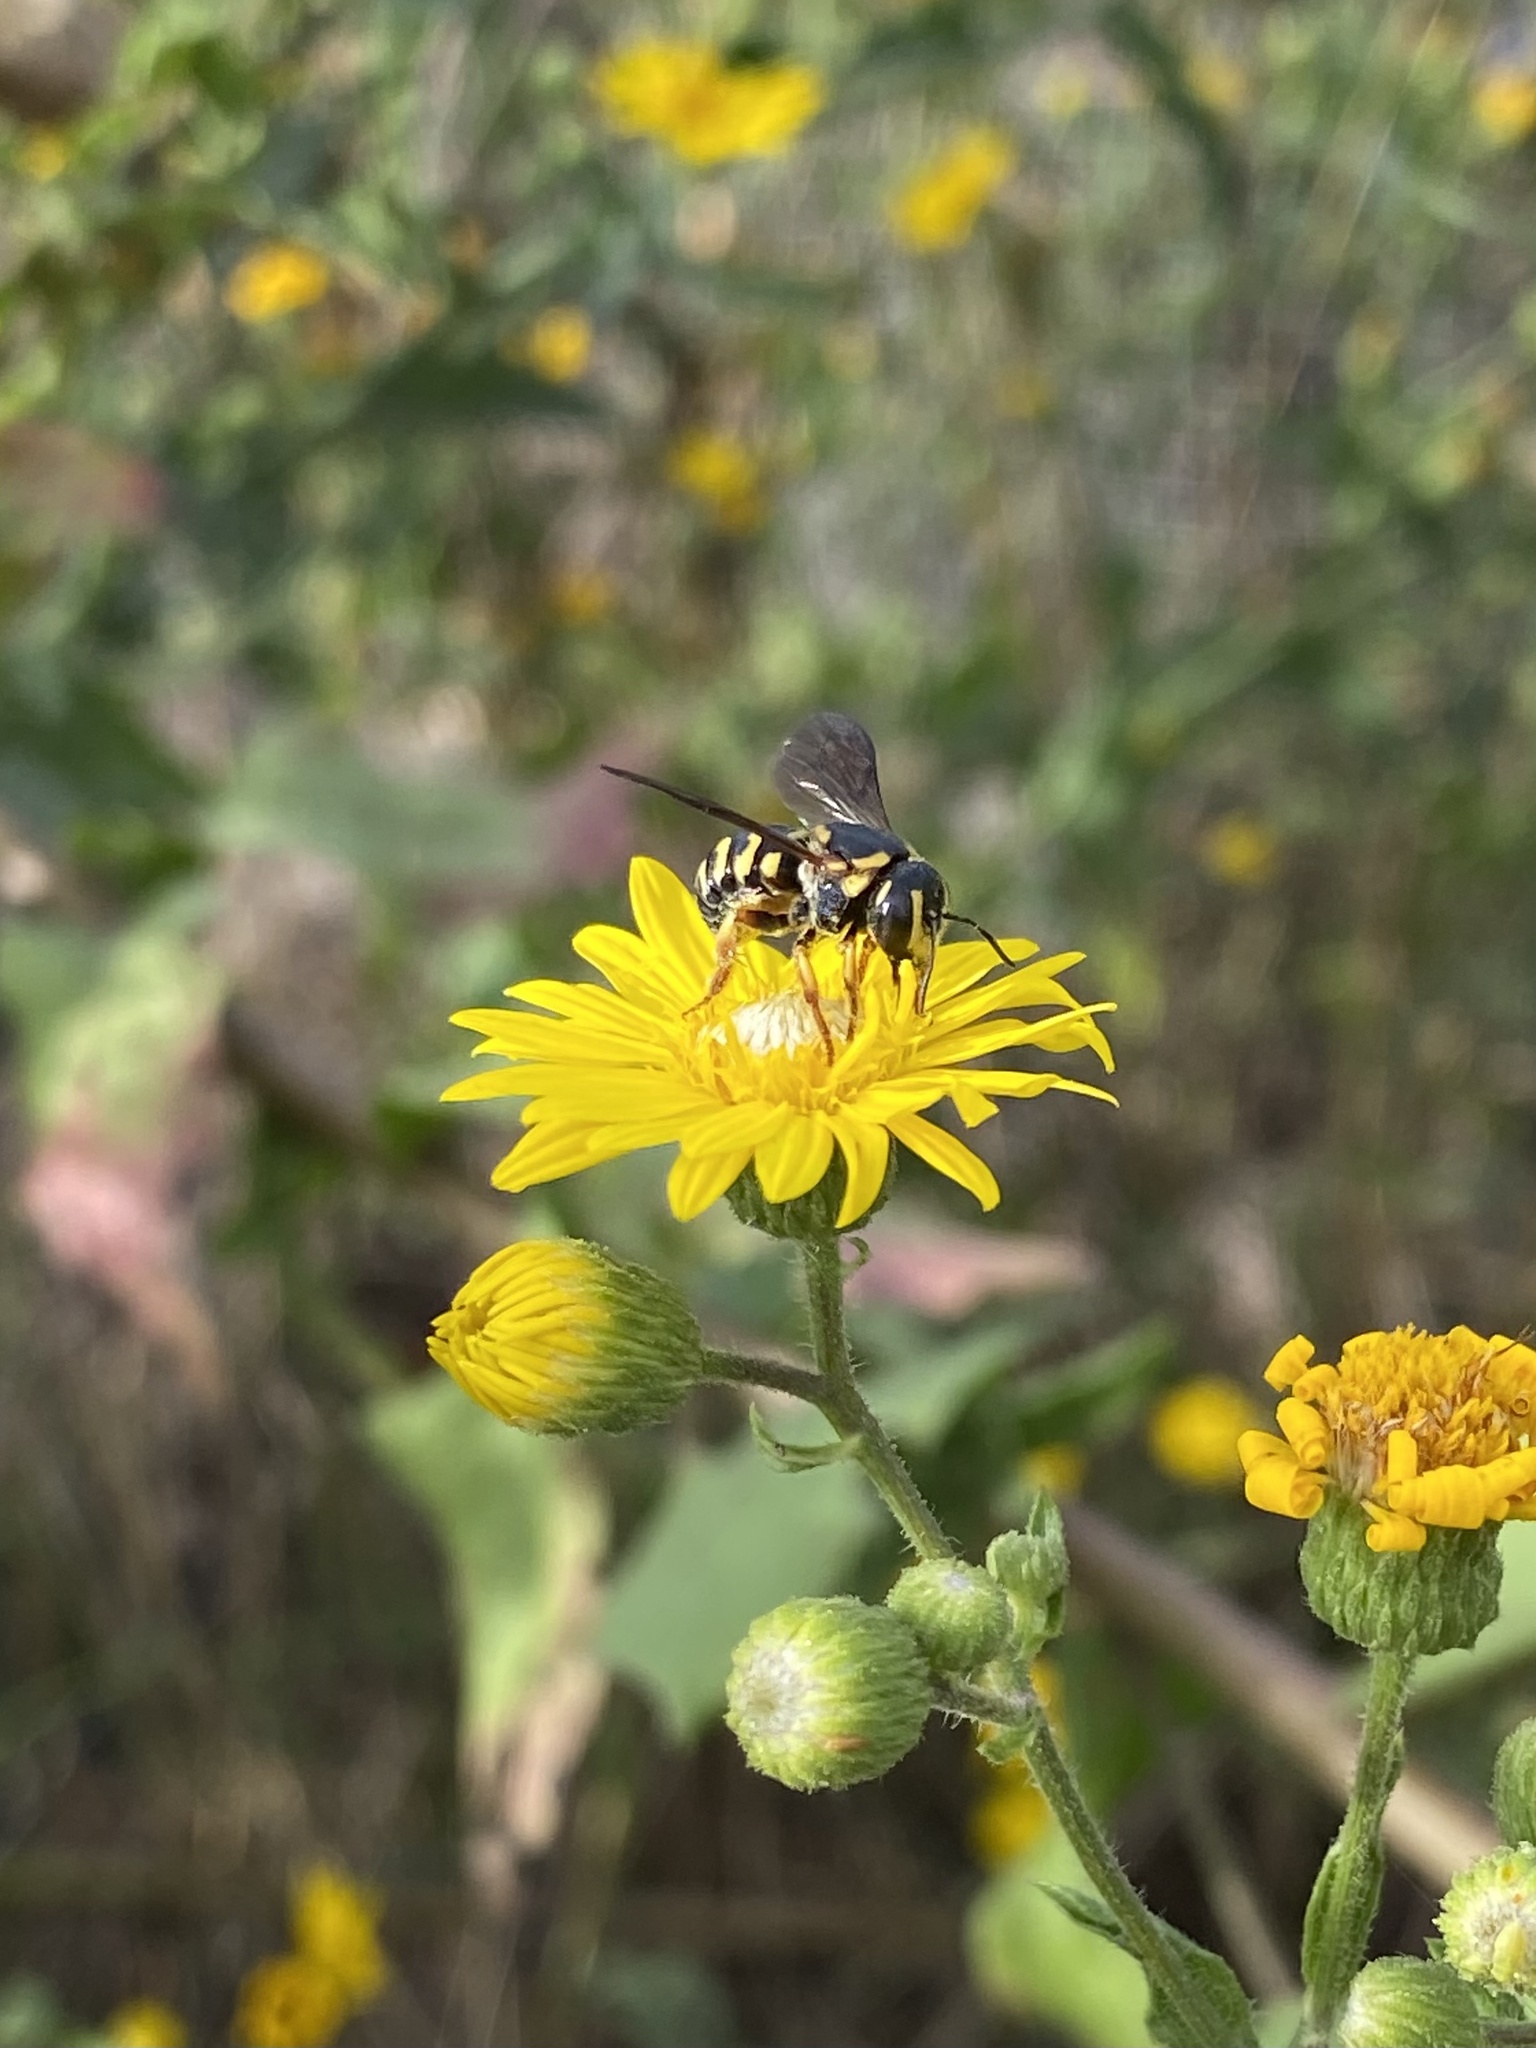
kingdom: Animalia
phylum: Arthropoda
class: Insecta
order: Hymenoptera
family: Megachilidae
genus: Dianthidium
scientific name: Dianthidium curvatum
